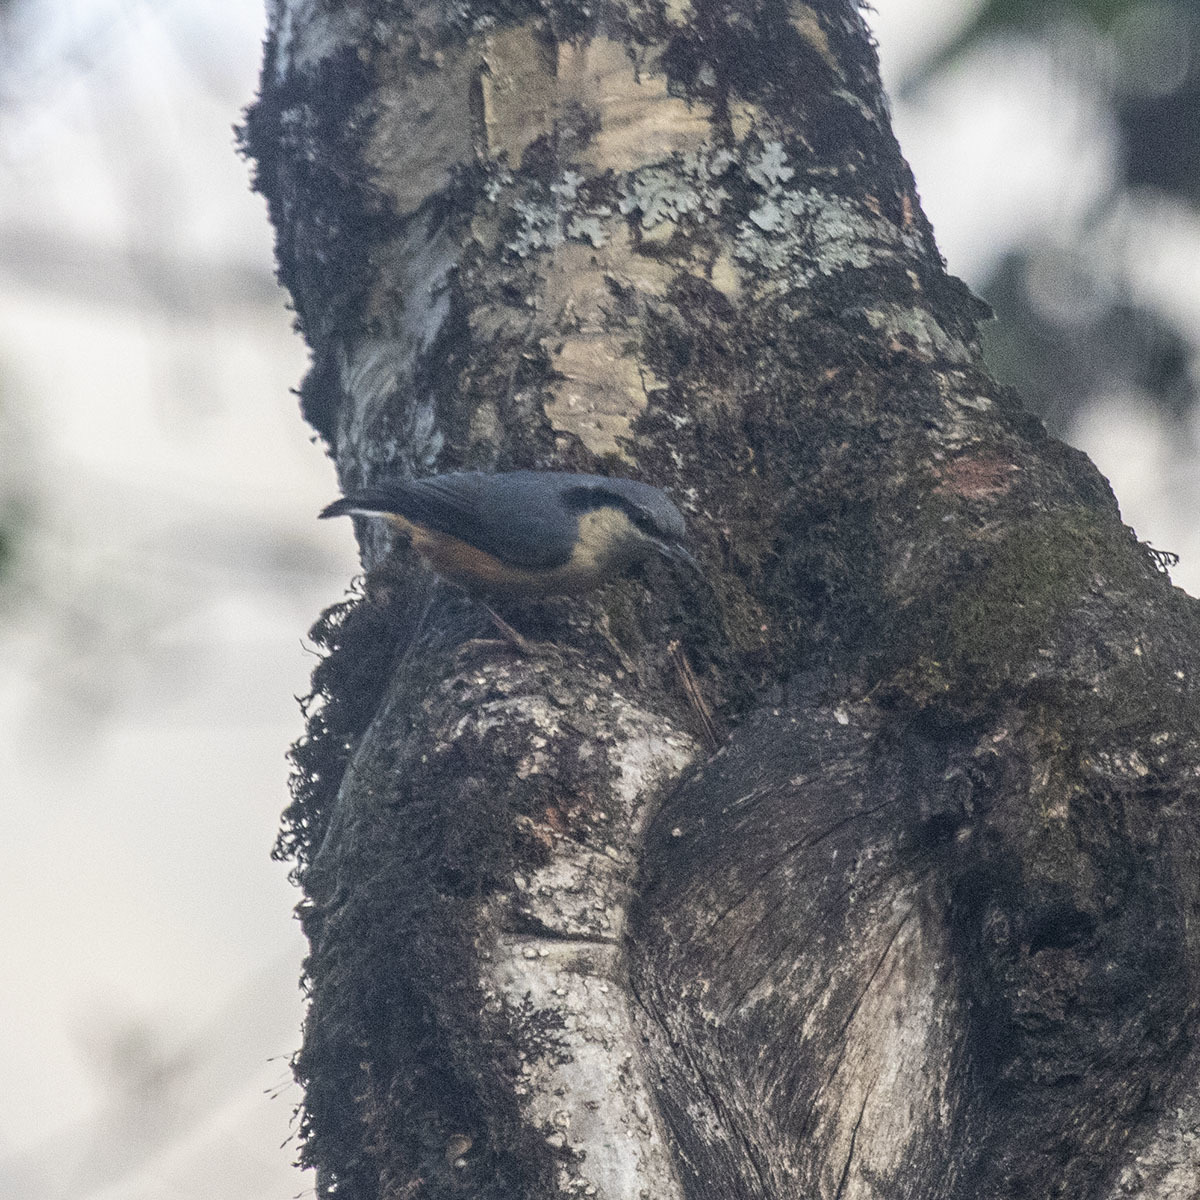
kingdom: Animalia
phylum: Chordata
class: Aves
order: Passeriformes
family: Sittidae
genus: Sitta
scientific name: Sitta himalayensis
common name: White-tailed nuthatch
